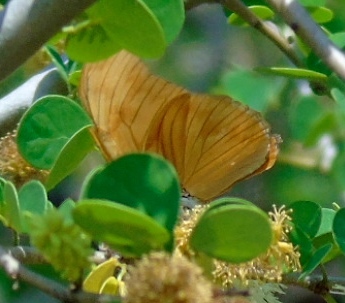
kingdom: Animalia
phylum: Arthropoda
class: Insecta
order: Lepidoptera
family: Nymphalidae
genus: Dryas
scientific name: Dryas iulia
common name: Flambeau
